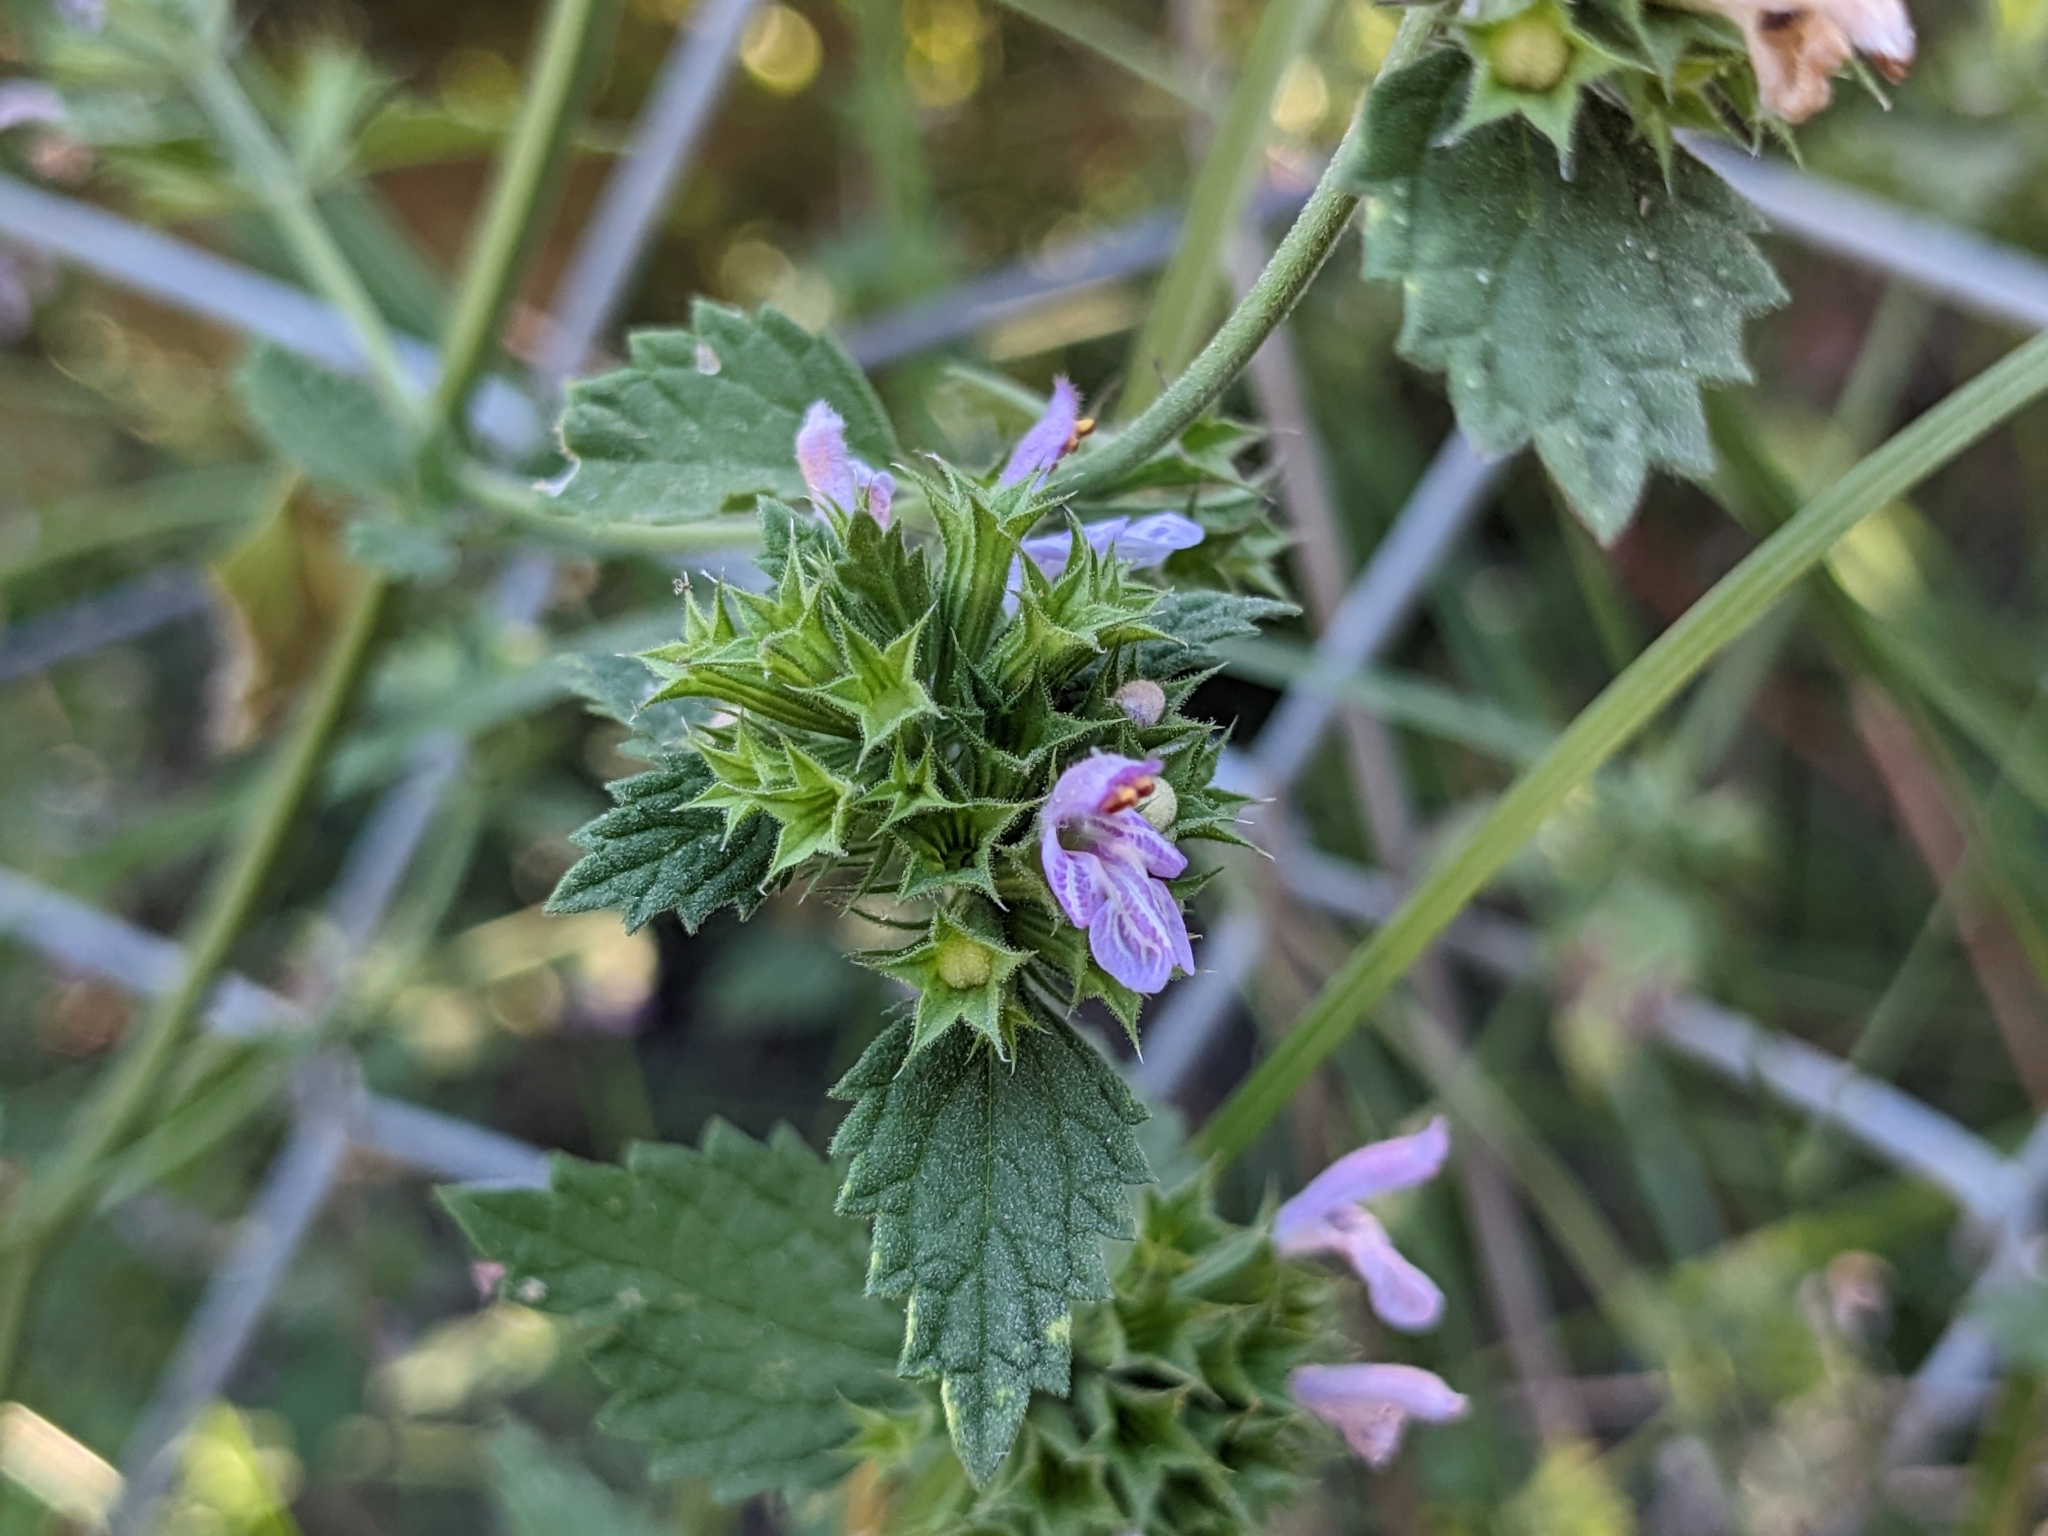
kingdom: Plantae
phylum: Tracheophyta
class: Magnoliopsida
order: Lamiales
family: Lamiaceae
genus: Ballota
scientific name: Ballota nigra
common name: Black horehound
